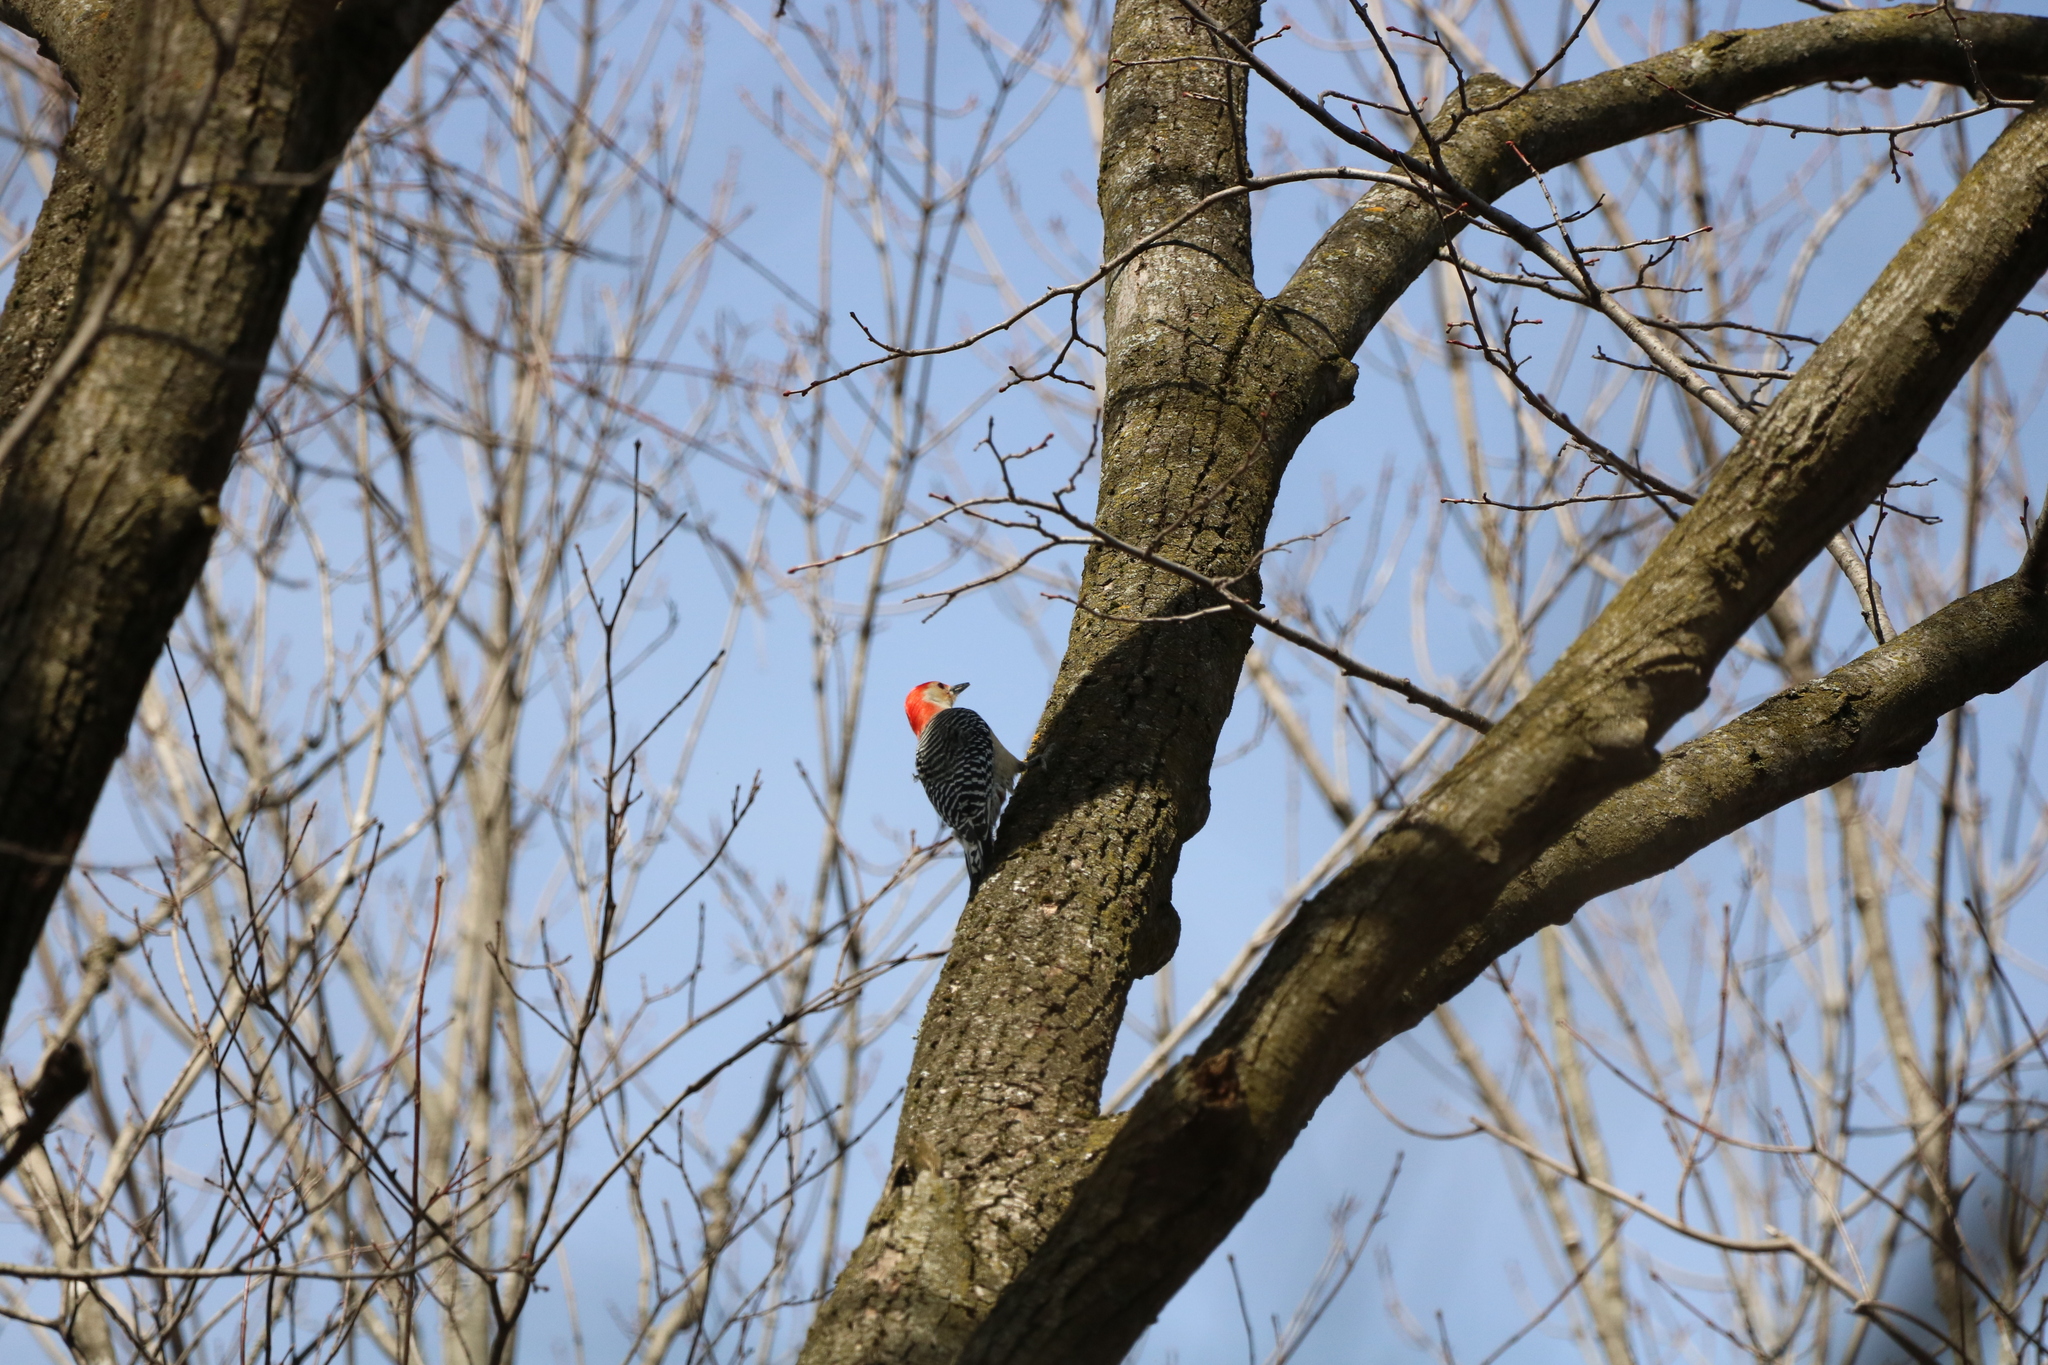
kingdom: Animalia
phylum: Chordata
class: Aves
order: Piciformes
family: Picidae
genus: Melanerpes
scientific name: Melanerpes carolinus
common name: Red-bellied woodpecker
